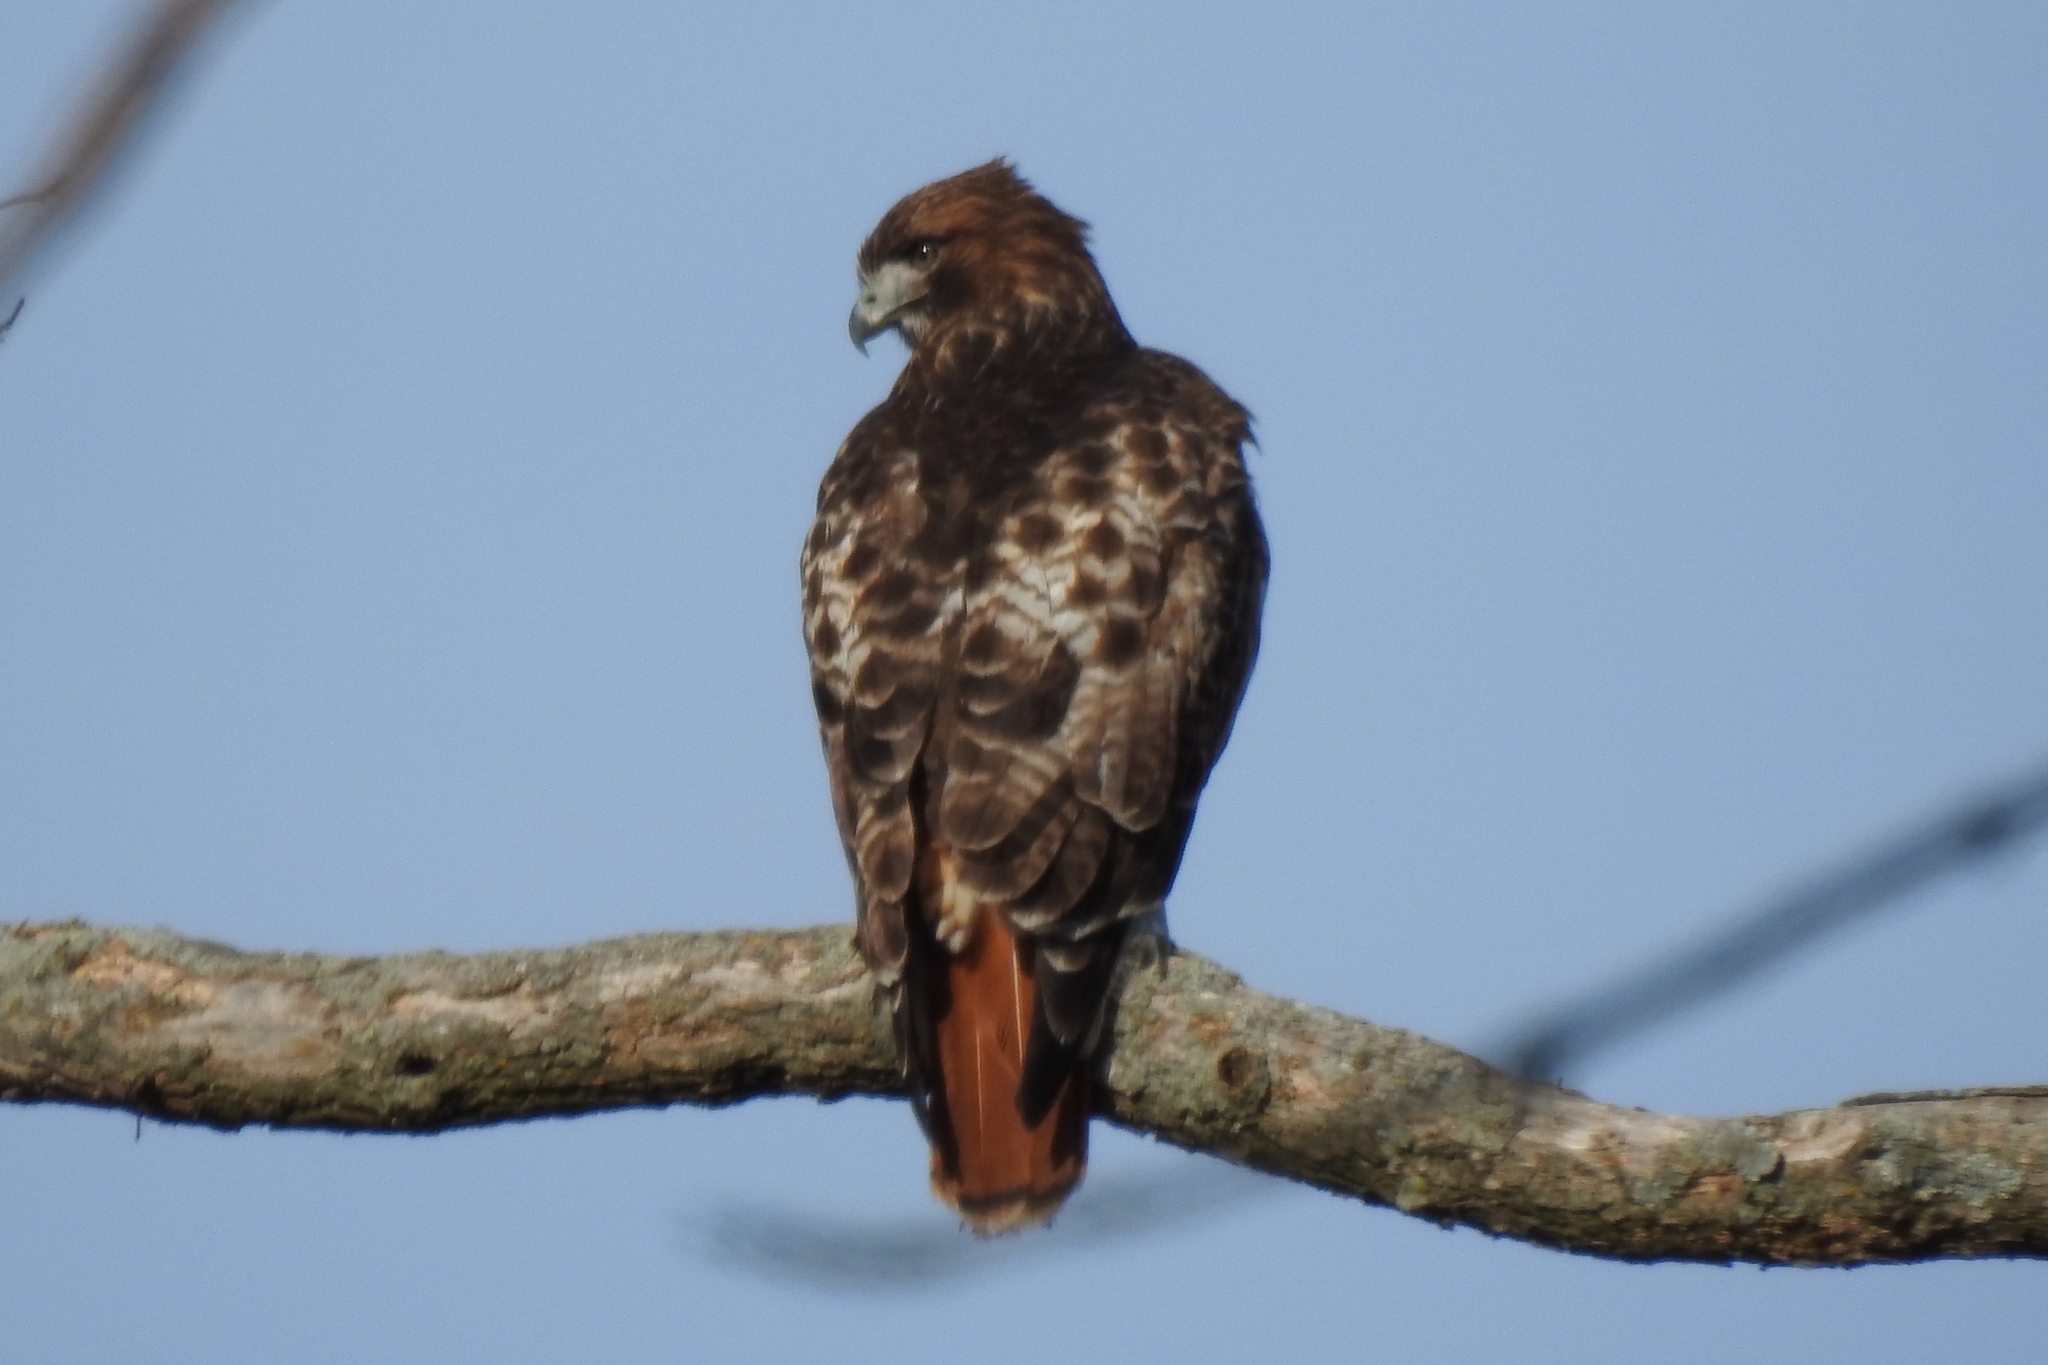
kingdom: Animalia
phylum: Chordata
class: Aves
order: Accipitriformes
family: Accipitridae
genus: Buteo
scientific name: Buteo jamaicensis
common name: Red-tailed hawk
